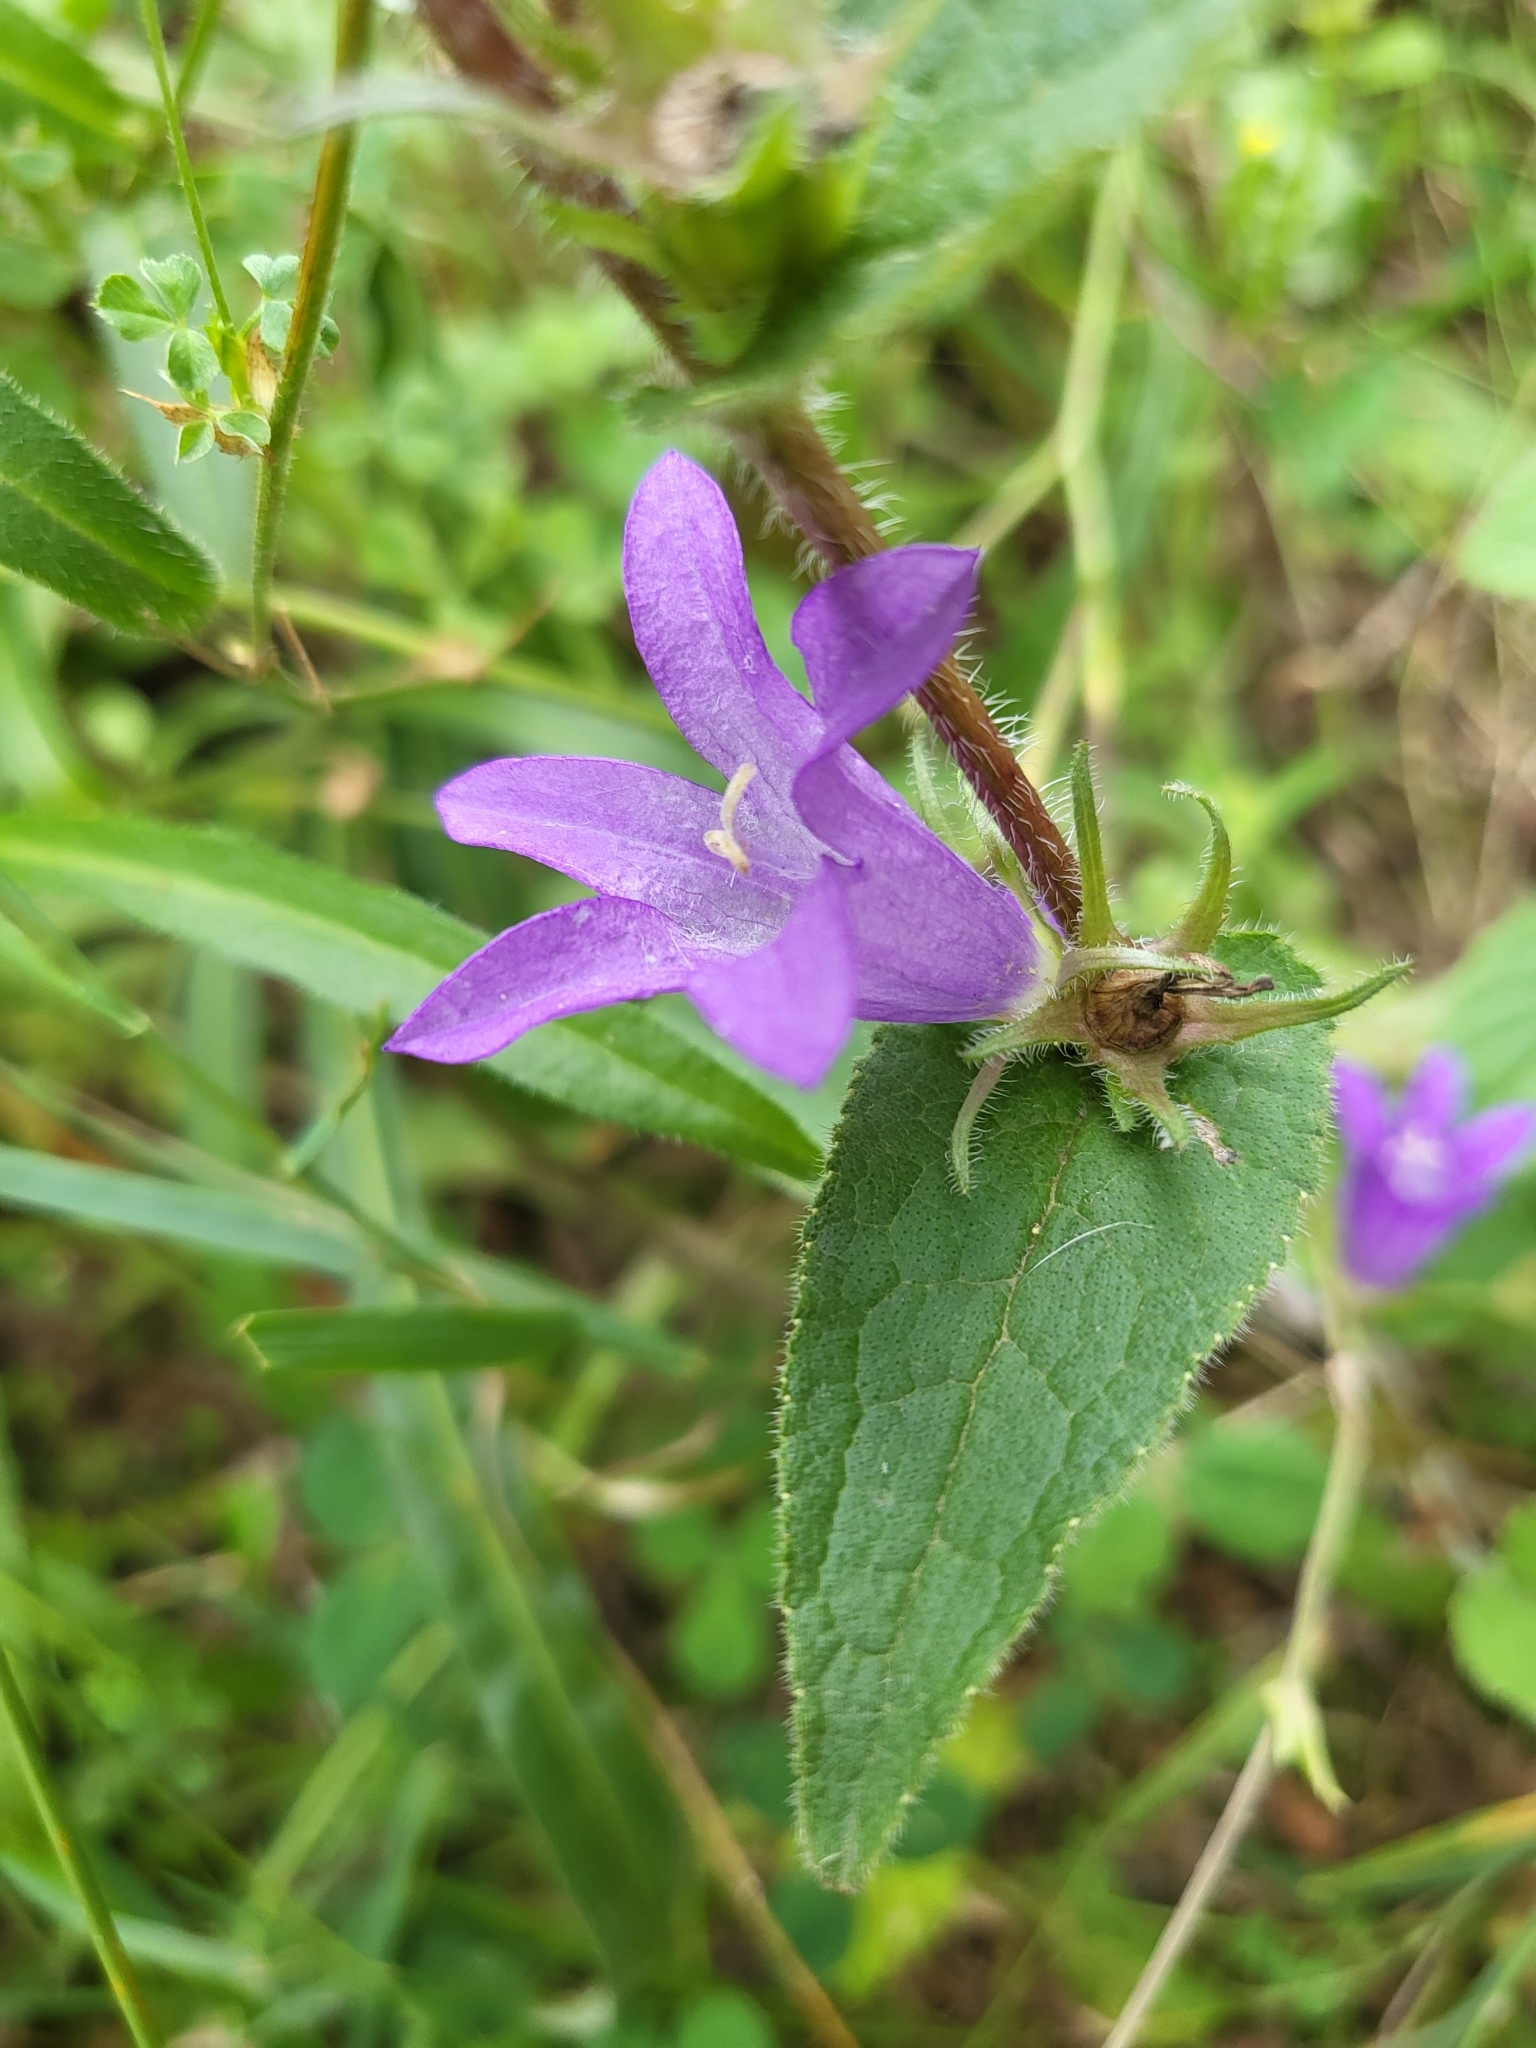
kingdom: Plantae
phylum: Tracheophyta
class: Magnoliopsida
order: Asterales
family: Campanulaceae
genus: Campanula
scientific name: Campanula glomerata
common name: Clustered bellflower
